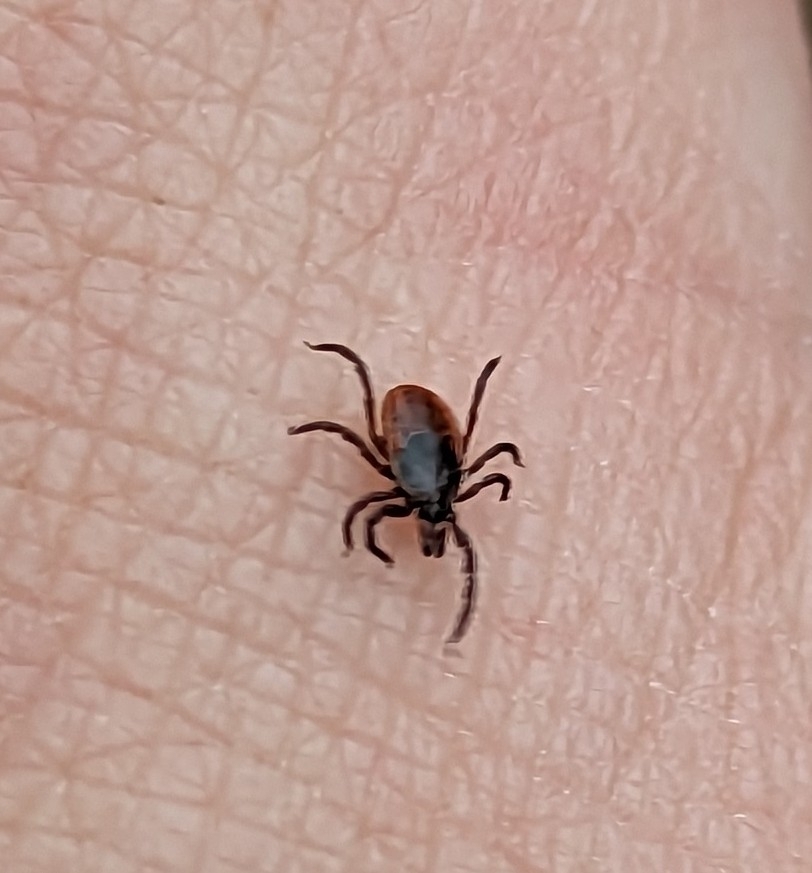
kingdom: Animalia
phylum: Arthropoda
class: Arachnida
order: Ixodida
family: Ixodidae
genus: Ixodes
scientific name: Ixodes scapularis
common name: Black legged tick
